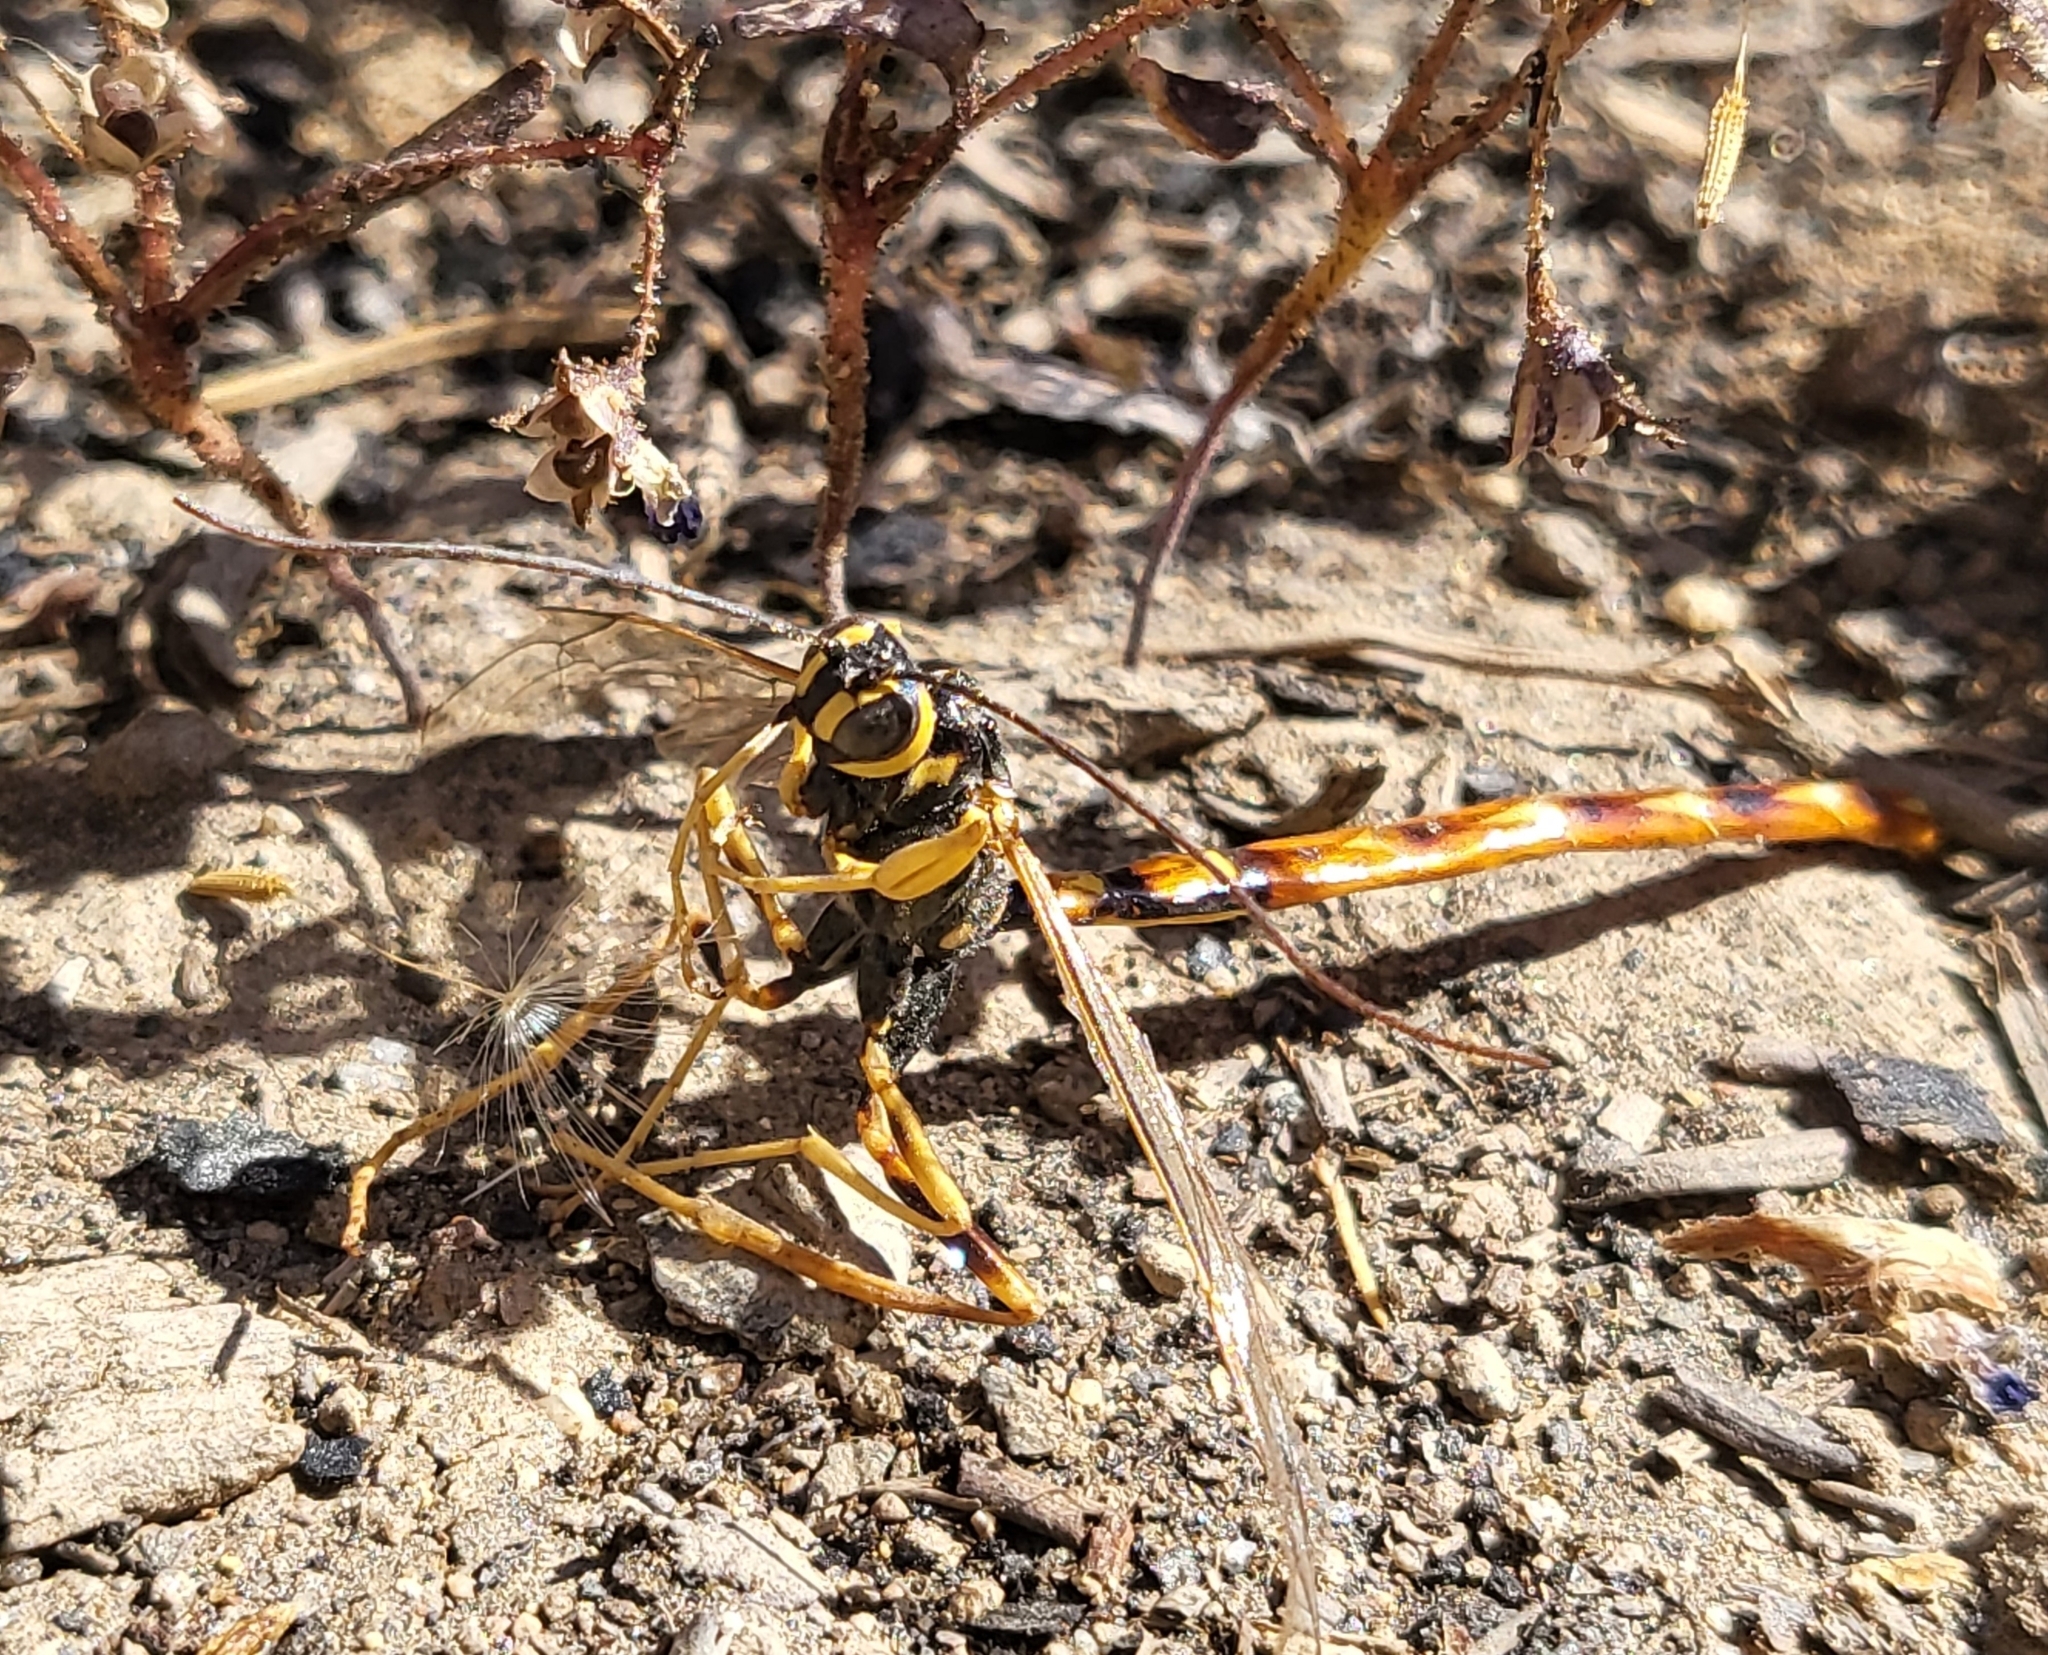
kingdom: Animalia
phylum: Arthropoda
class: Insecta
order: Hymenoptera
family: Ichneumonidae
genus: Megarhyssa
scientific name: Megarhyssa nortoni
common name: Norton's giant ichneumonid wasp
